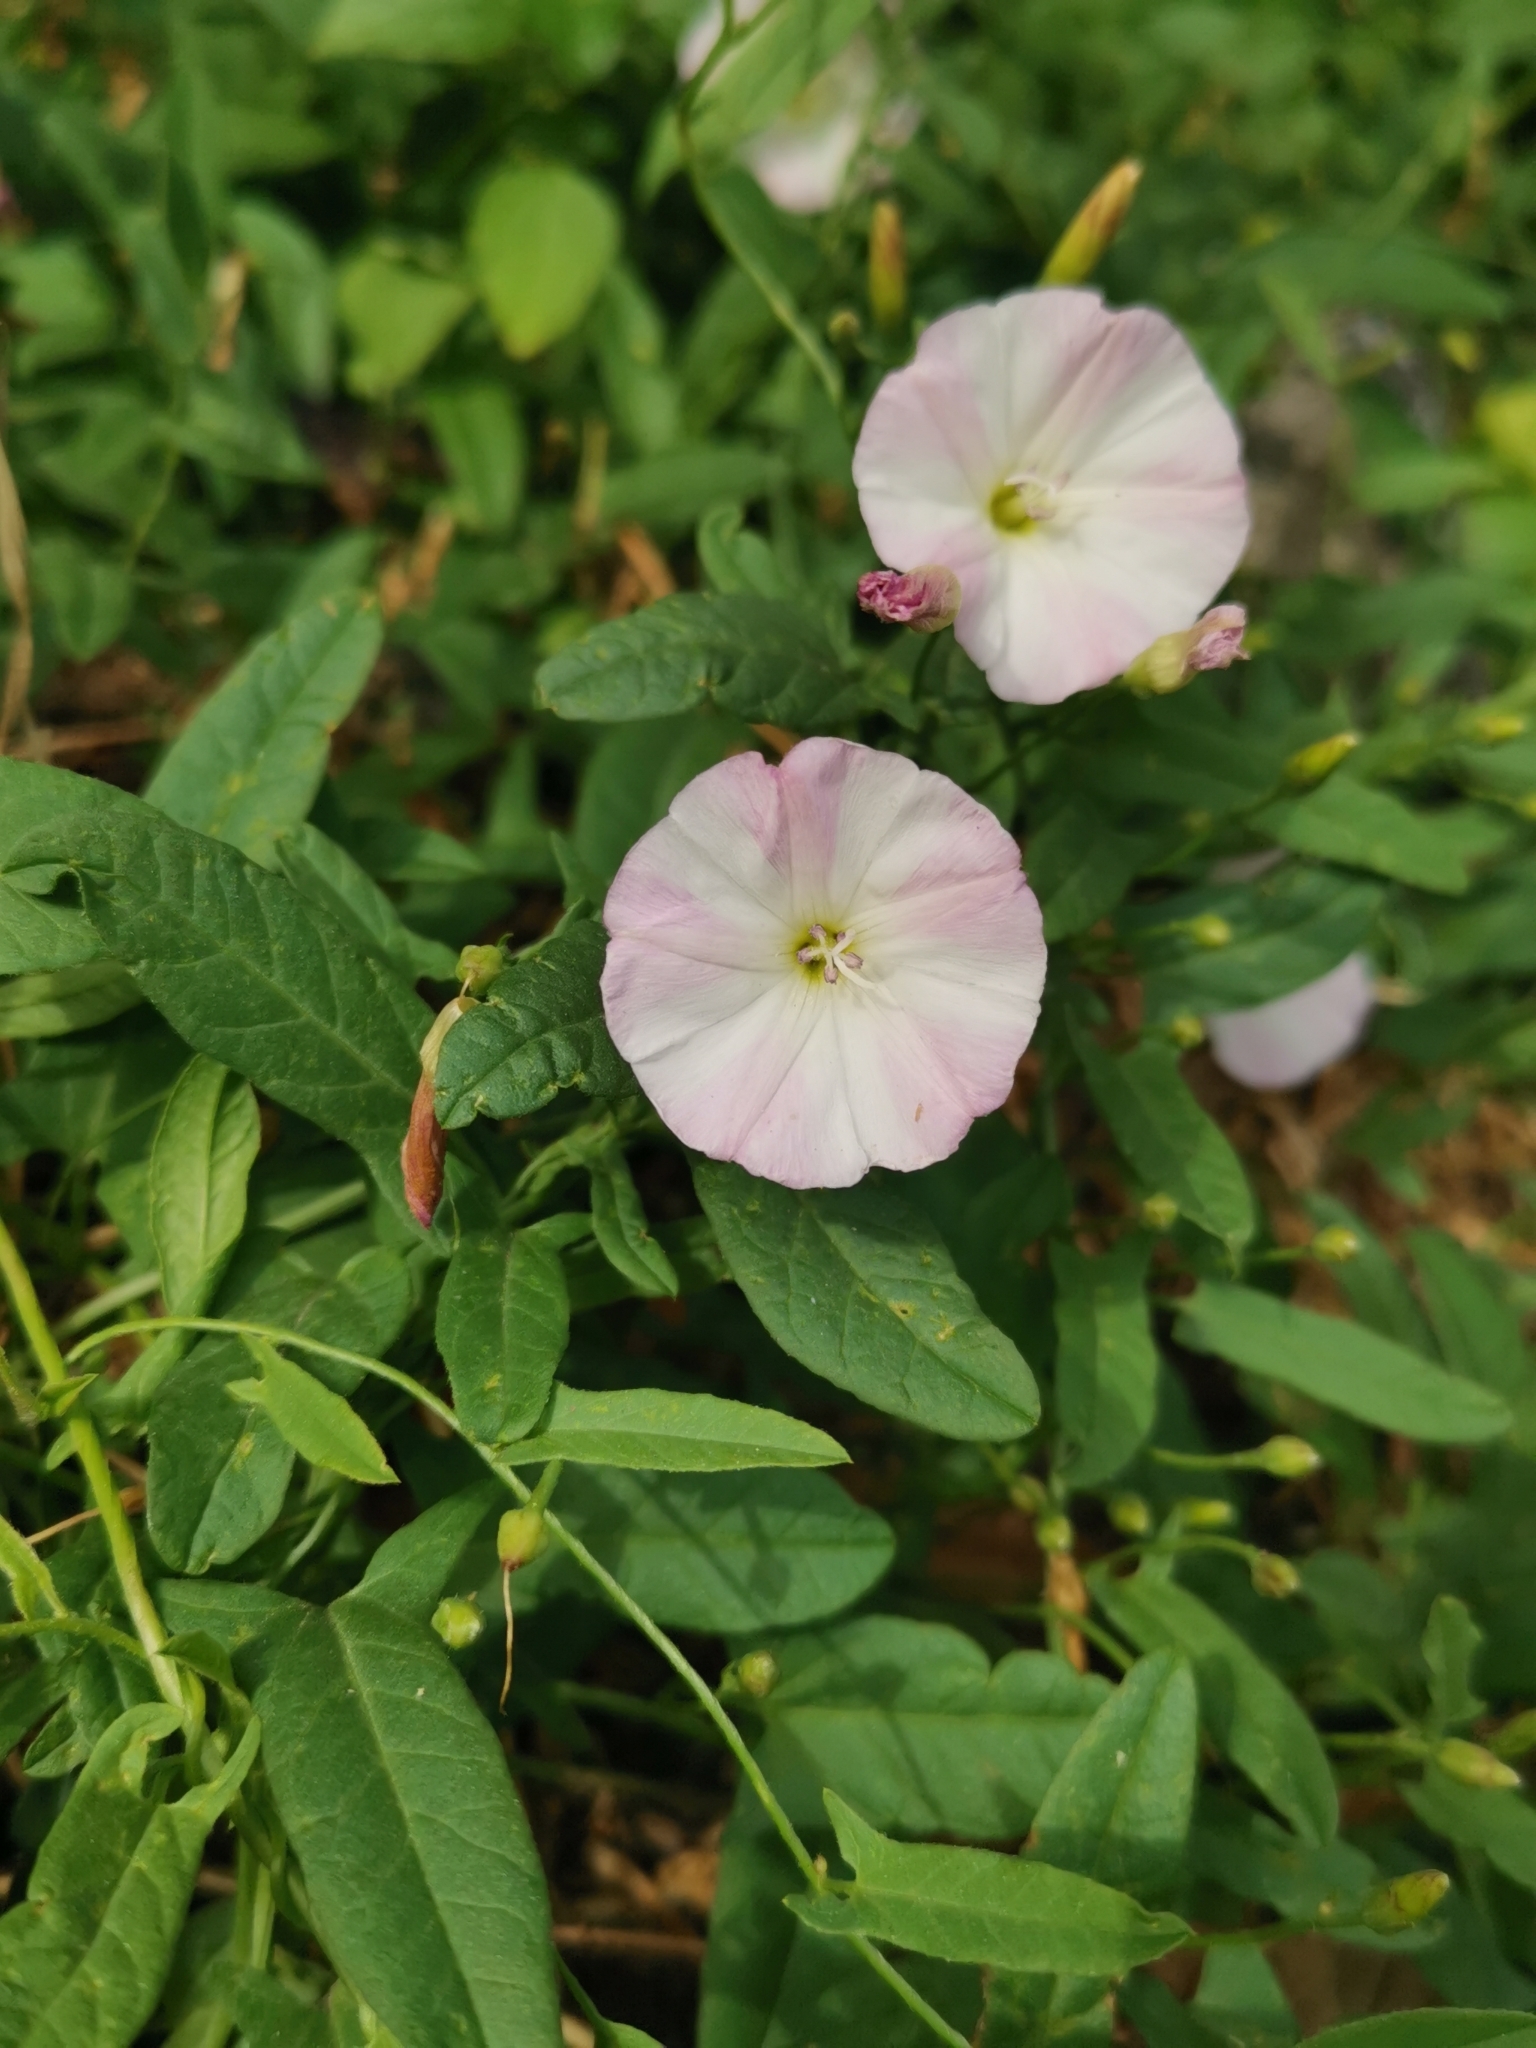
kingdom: Plantae
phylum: Tracheophyta
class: Magnoliopsida
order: Solanales
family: Convolvulaceae
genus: Convolvulus
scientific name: Convolvulus arvensis
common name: Field bindweed
